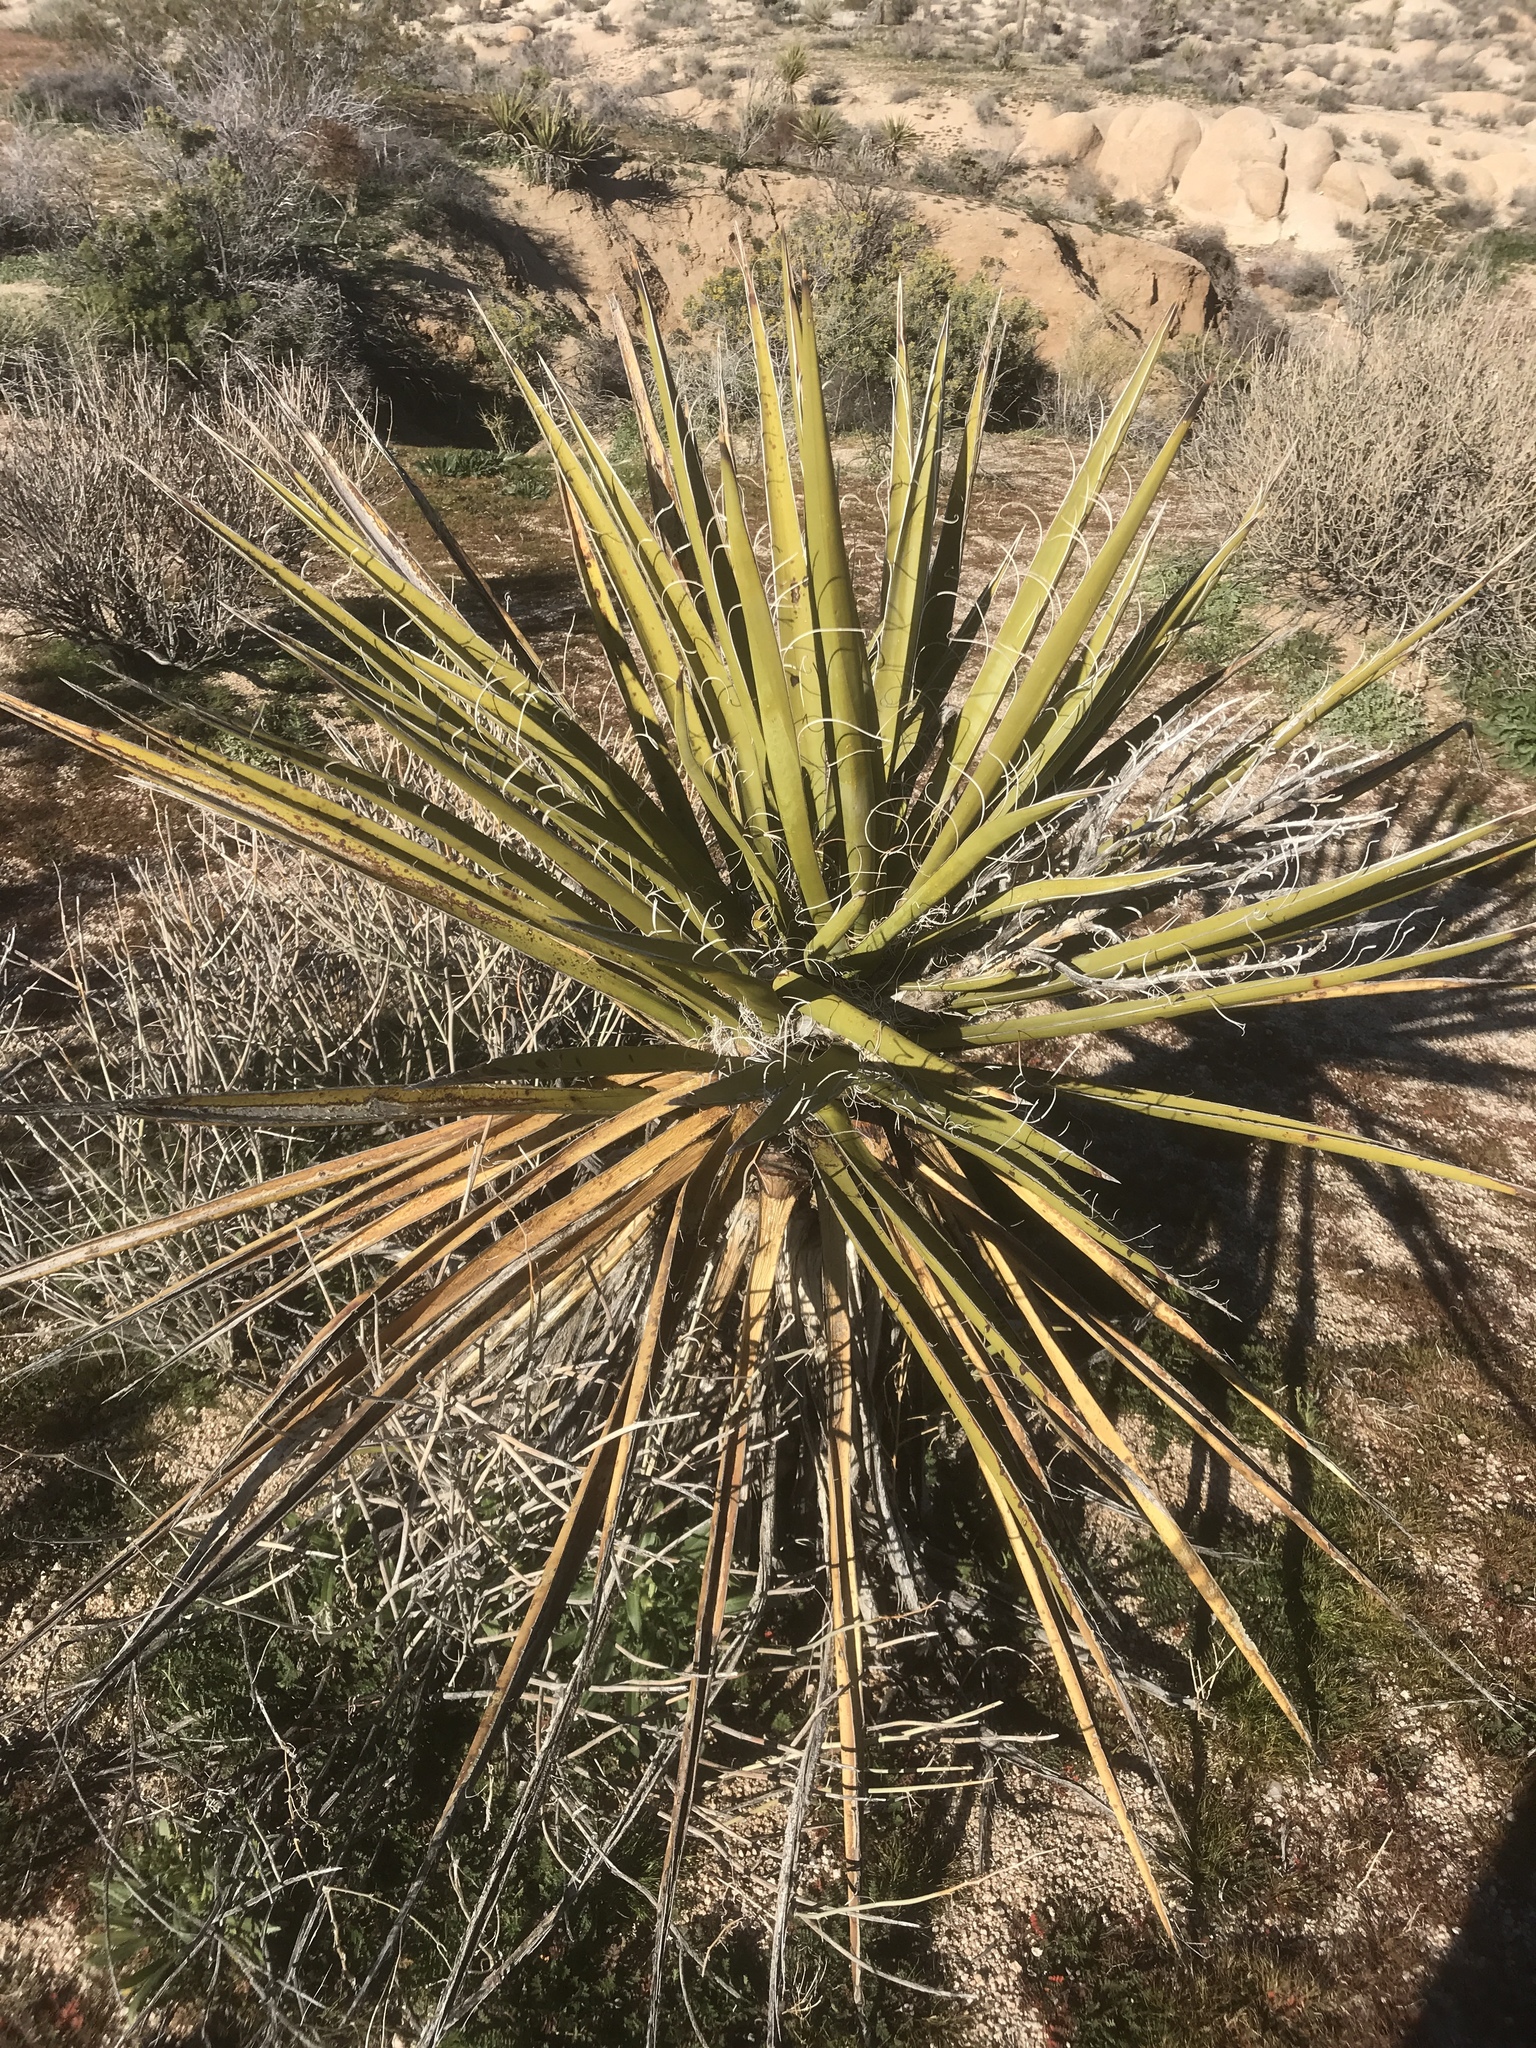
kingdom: Plantae
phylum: Tracheophyta
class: Liliopsida
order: Asparagales
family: Asparagaceae
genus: Yucca
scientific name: Yucca schidigera
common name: Mojave yucca
